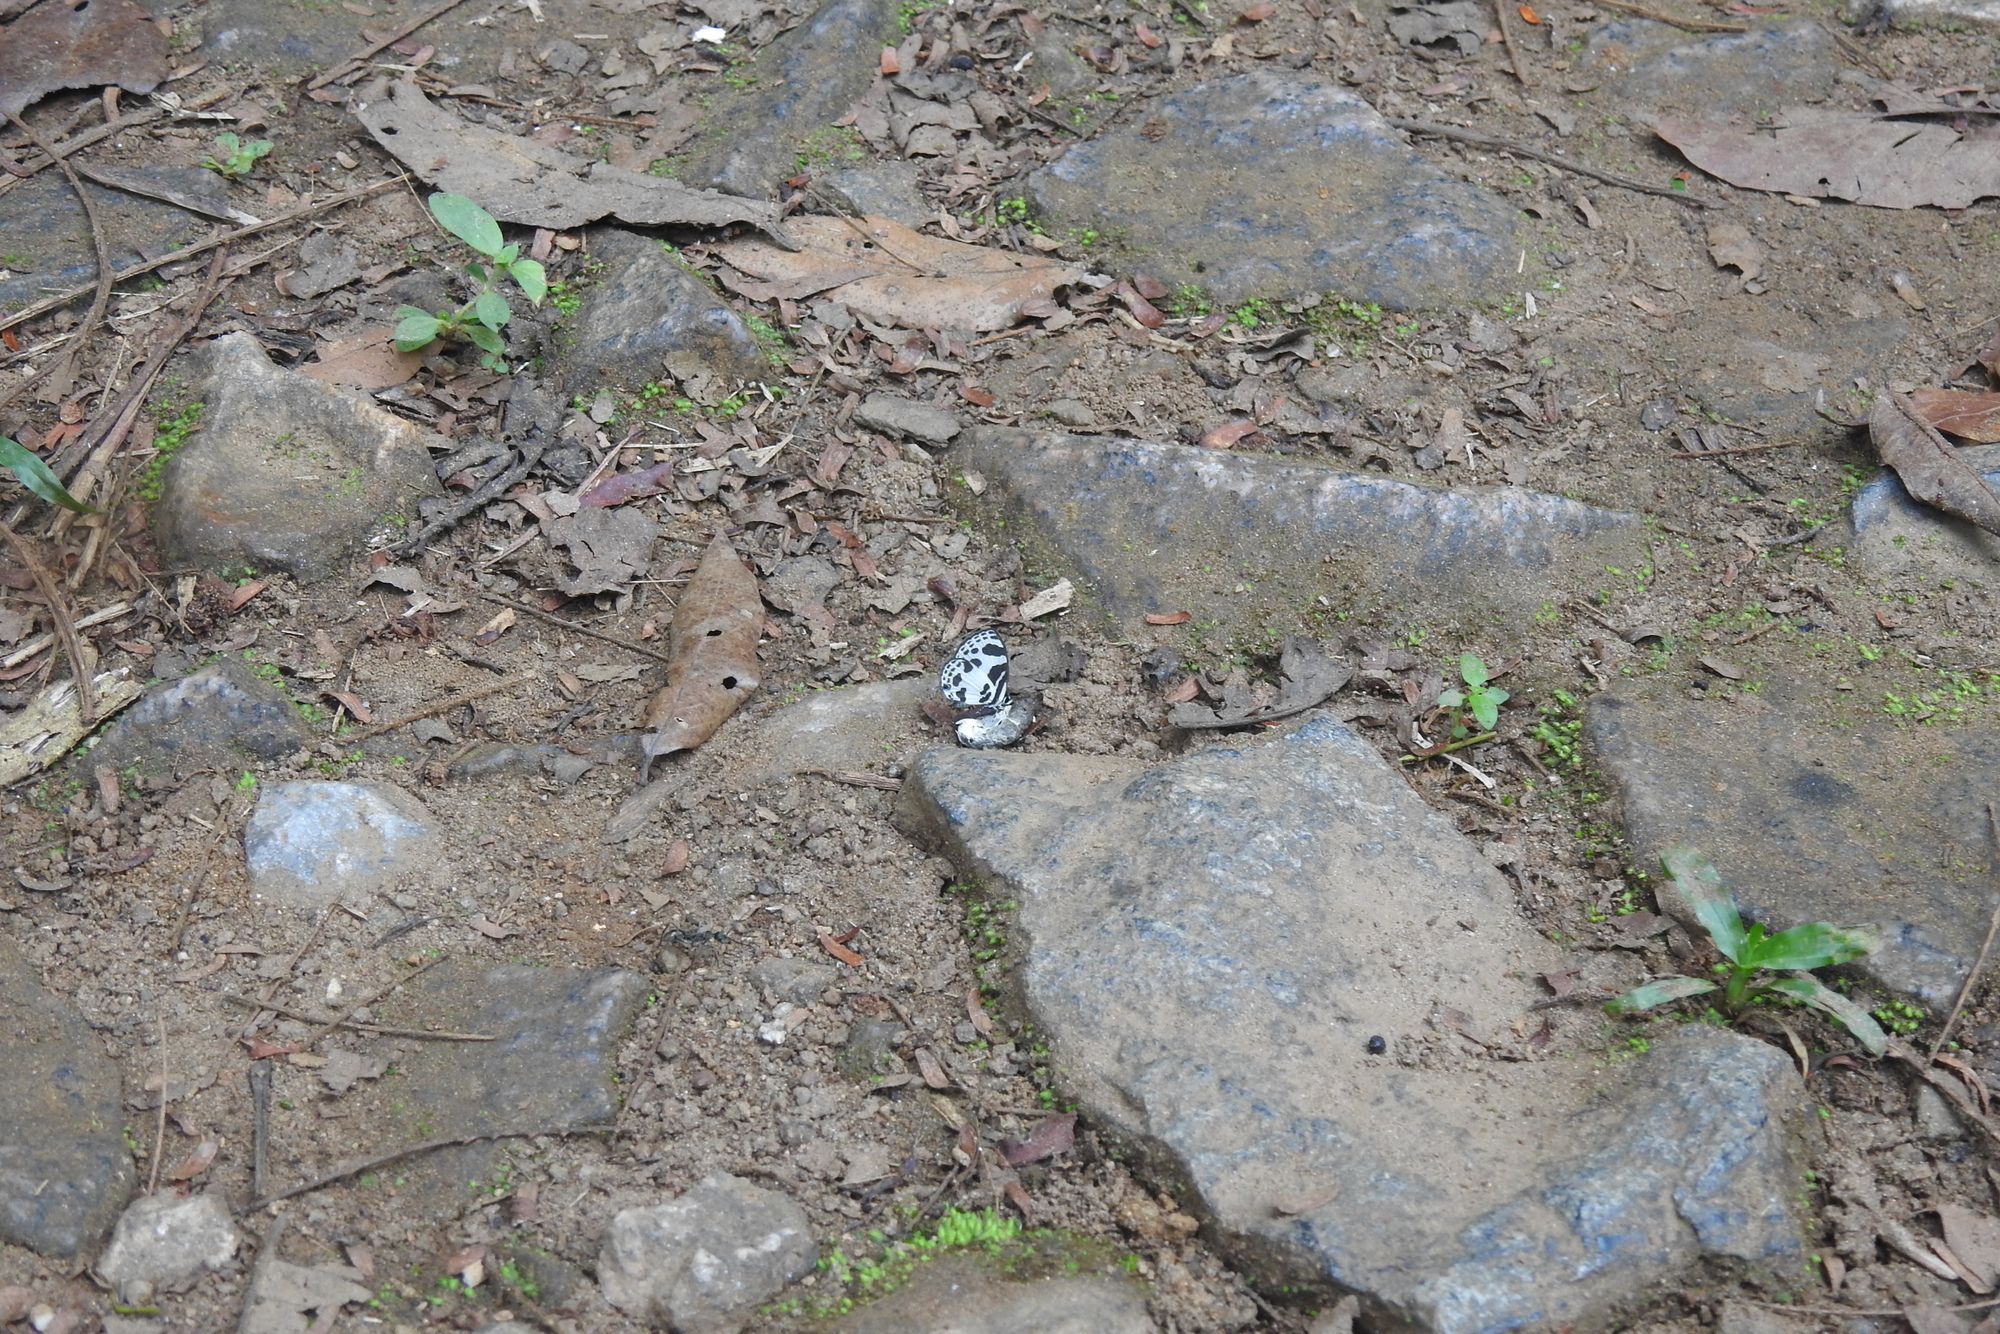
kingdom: Animalia
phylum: Arthropoda
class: Insecta
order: Lepidoptera
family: Lycaenidae
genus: Discolampa
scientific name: Discolampa ethion
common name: Banded blue pierrot
